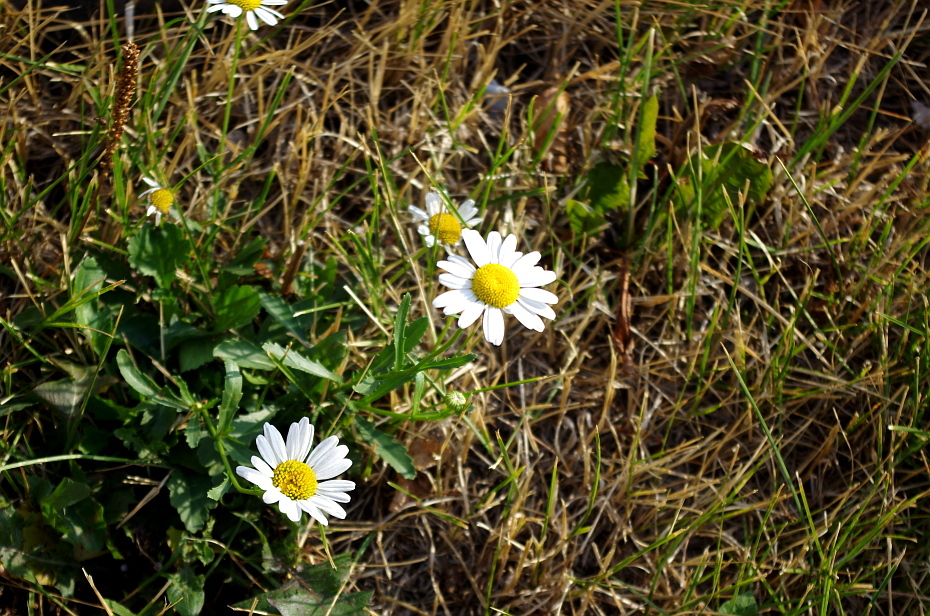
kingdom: Plantae
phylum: Tracheophyta
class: Magnoliopsida
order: Asterales
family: Asteraceae
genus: Leucanthemum
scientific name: Leucanthemum vulgare
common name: Oxeye daisy
